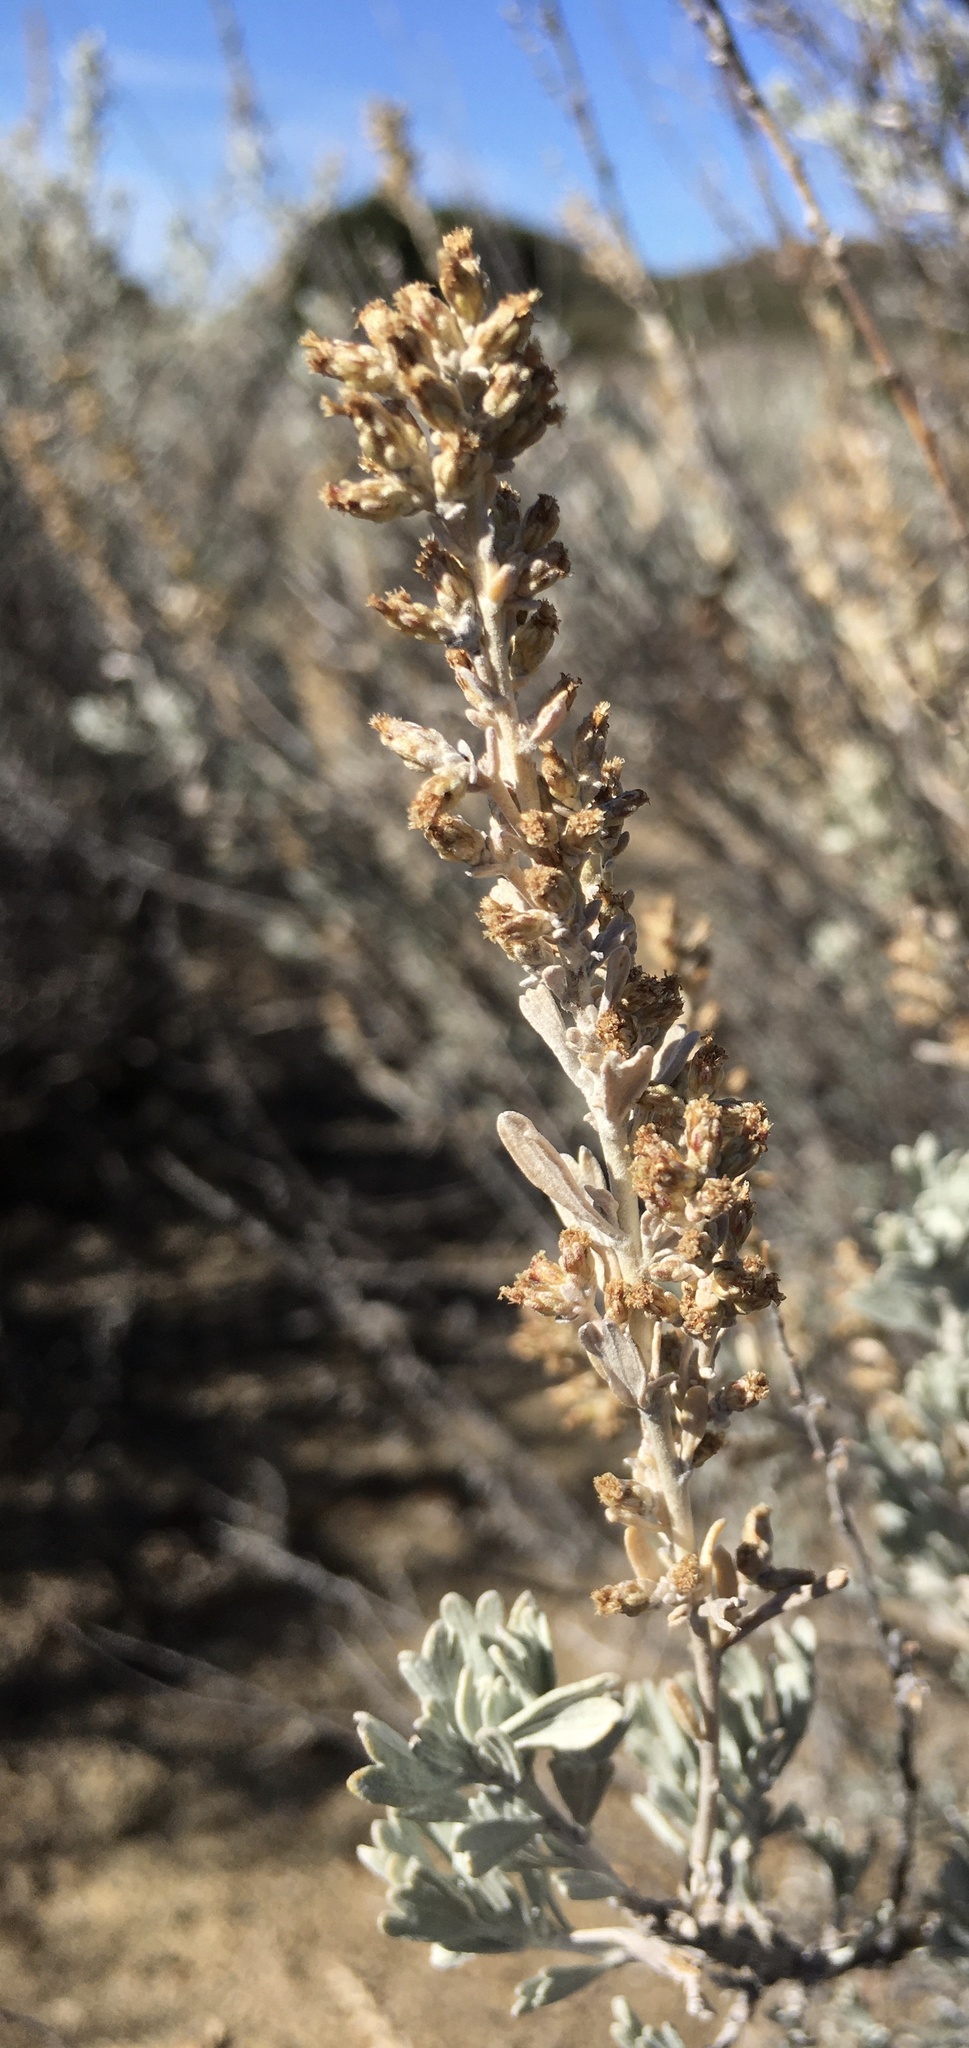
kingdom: Plantae
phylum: Tracheophyta
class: Magnoliopsida
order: Asterales
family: Asteraceae
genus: Artemisia
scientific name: Artemisia tridentata
